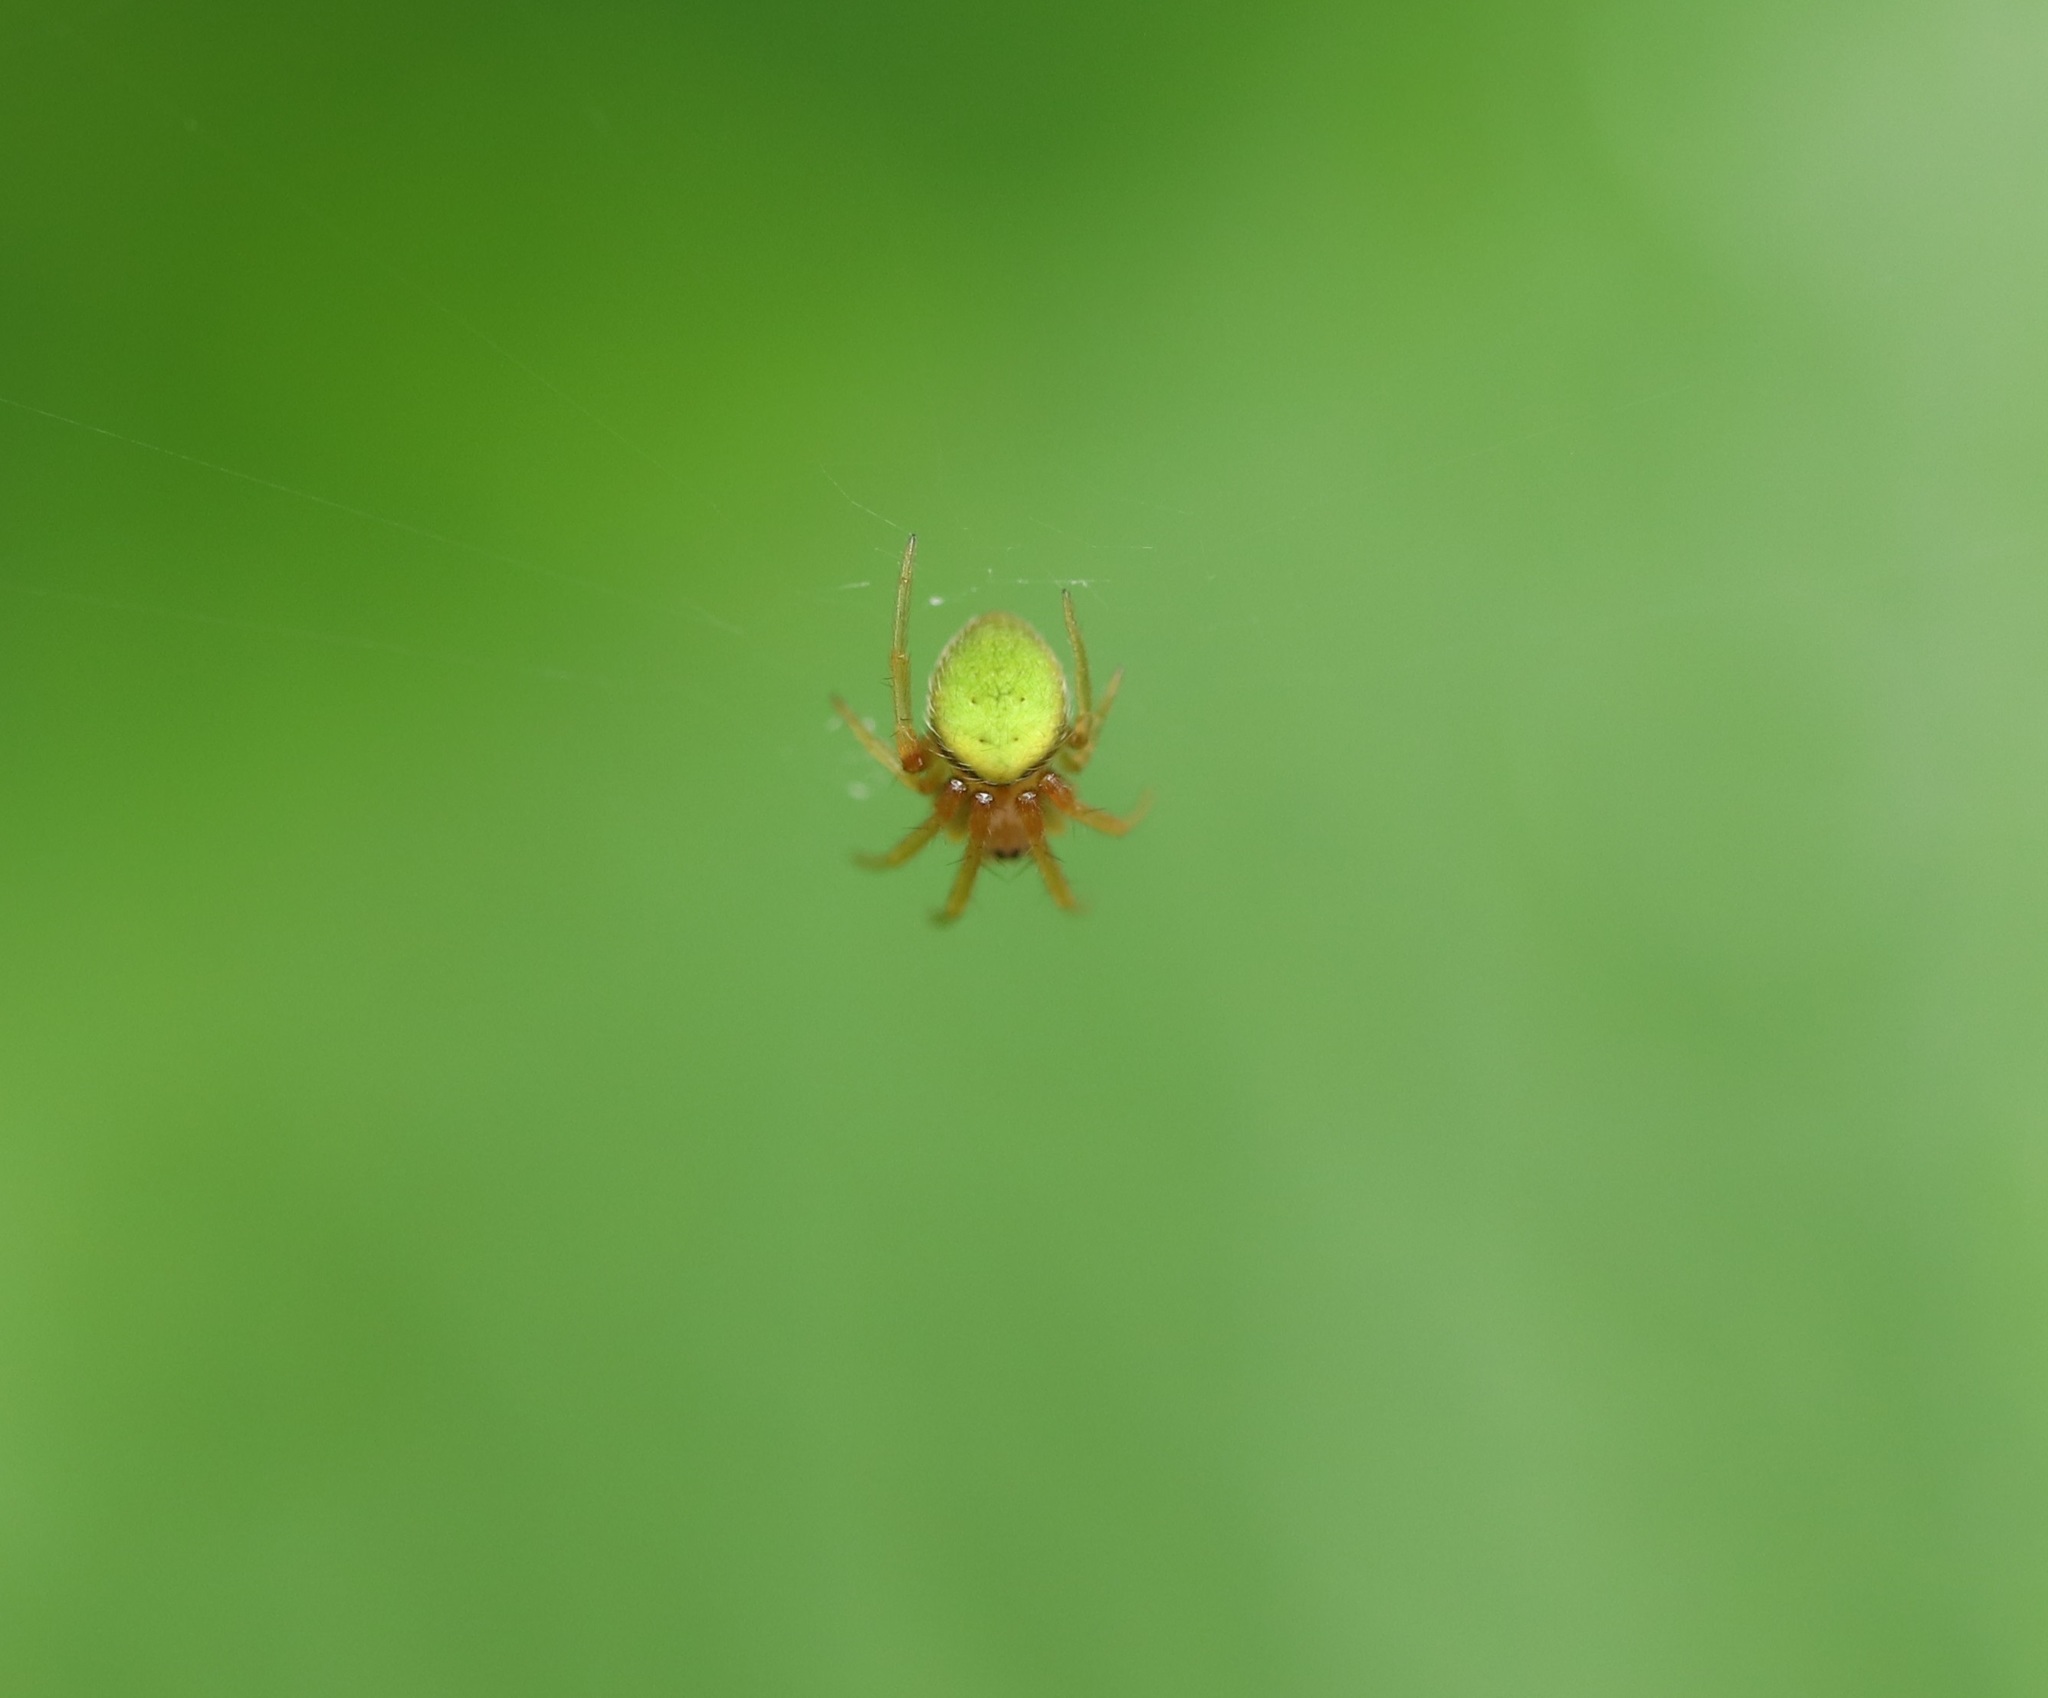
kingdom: Animalia
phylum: Arthropoda
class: Arachnida
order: Araneae
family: Araneidae
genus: Neoscona
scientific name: Neoscona mellotteei
